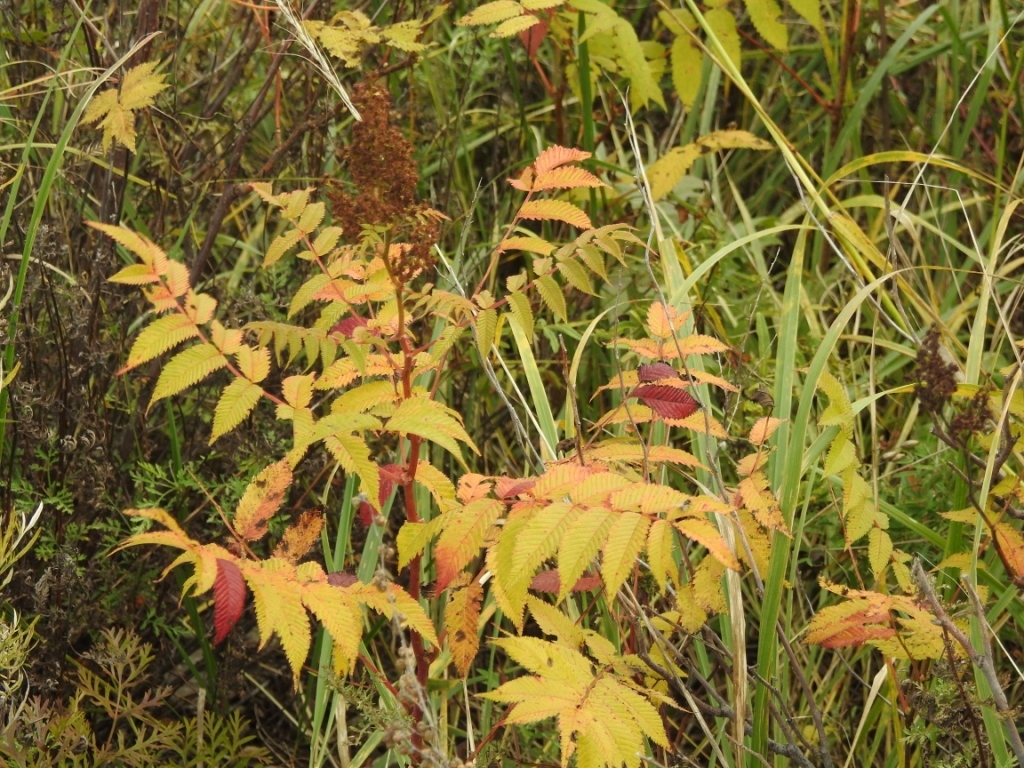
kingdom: Plantae
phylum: Tracheophyta
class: Magnoliopsida
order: Rosales
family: Rosaceae
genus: Sorbaria
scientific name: Sorbaria sorbifolia
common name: False spiraea
